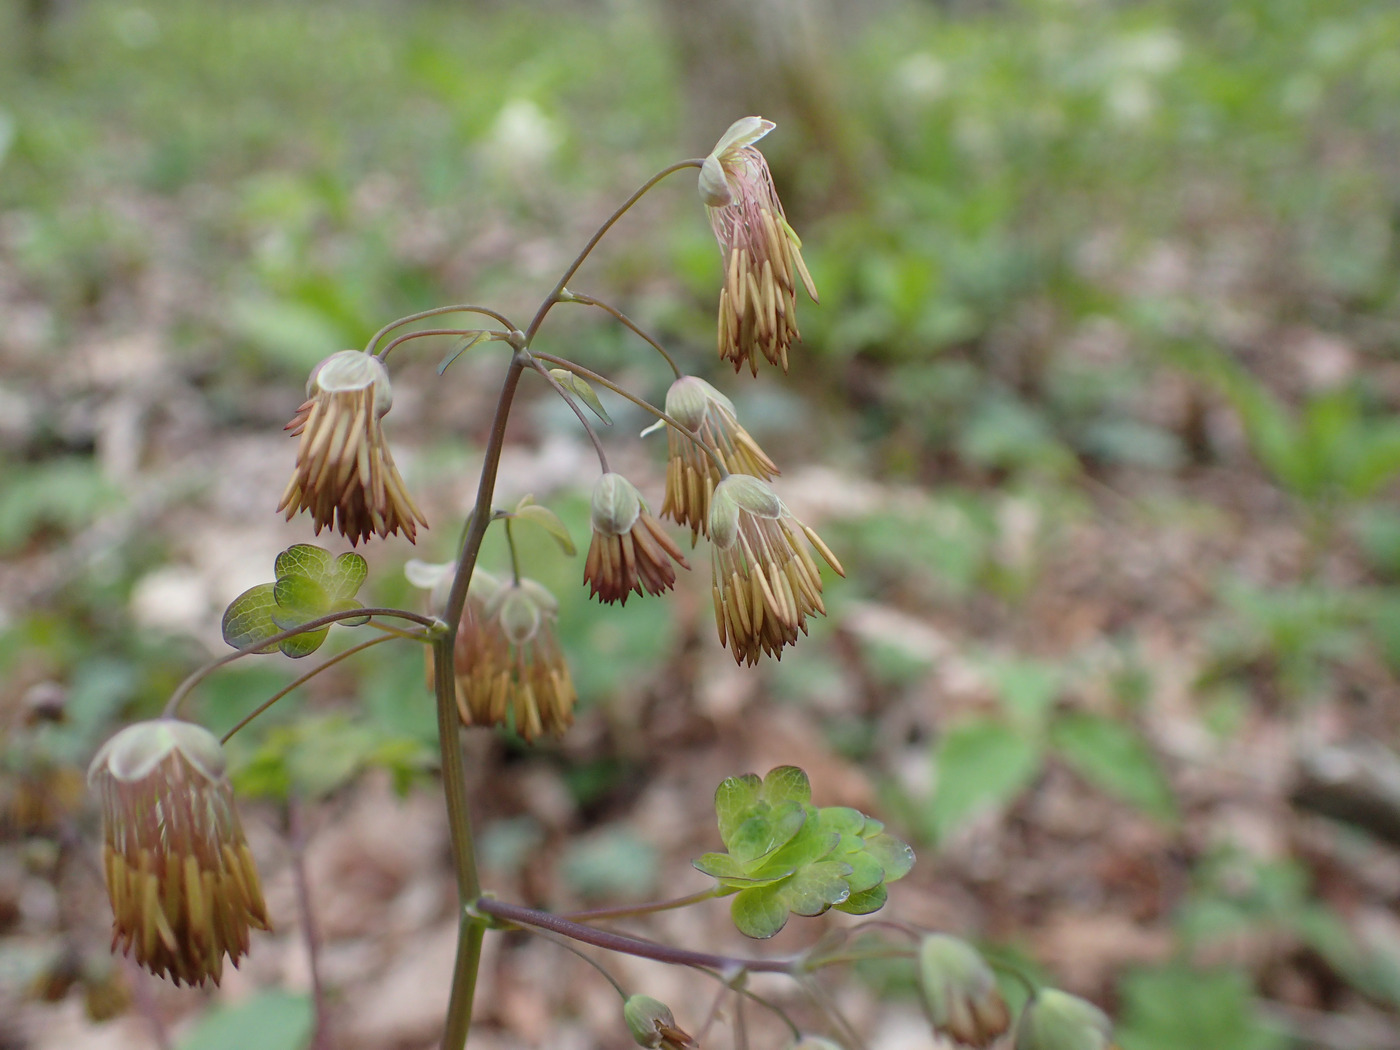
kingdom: Plantae
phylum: Tracheophyta
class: Magnoliopsida
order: Ranunculales
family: Ranunculaceae
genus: Thalictrum
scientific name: Thalictrum dioicum
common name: Early meadow-rue
